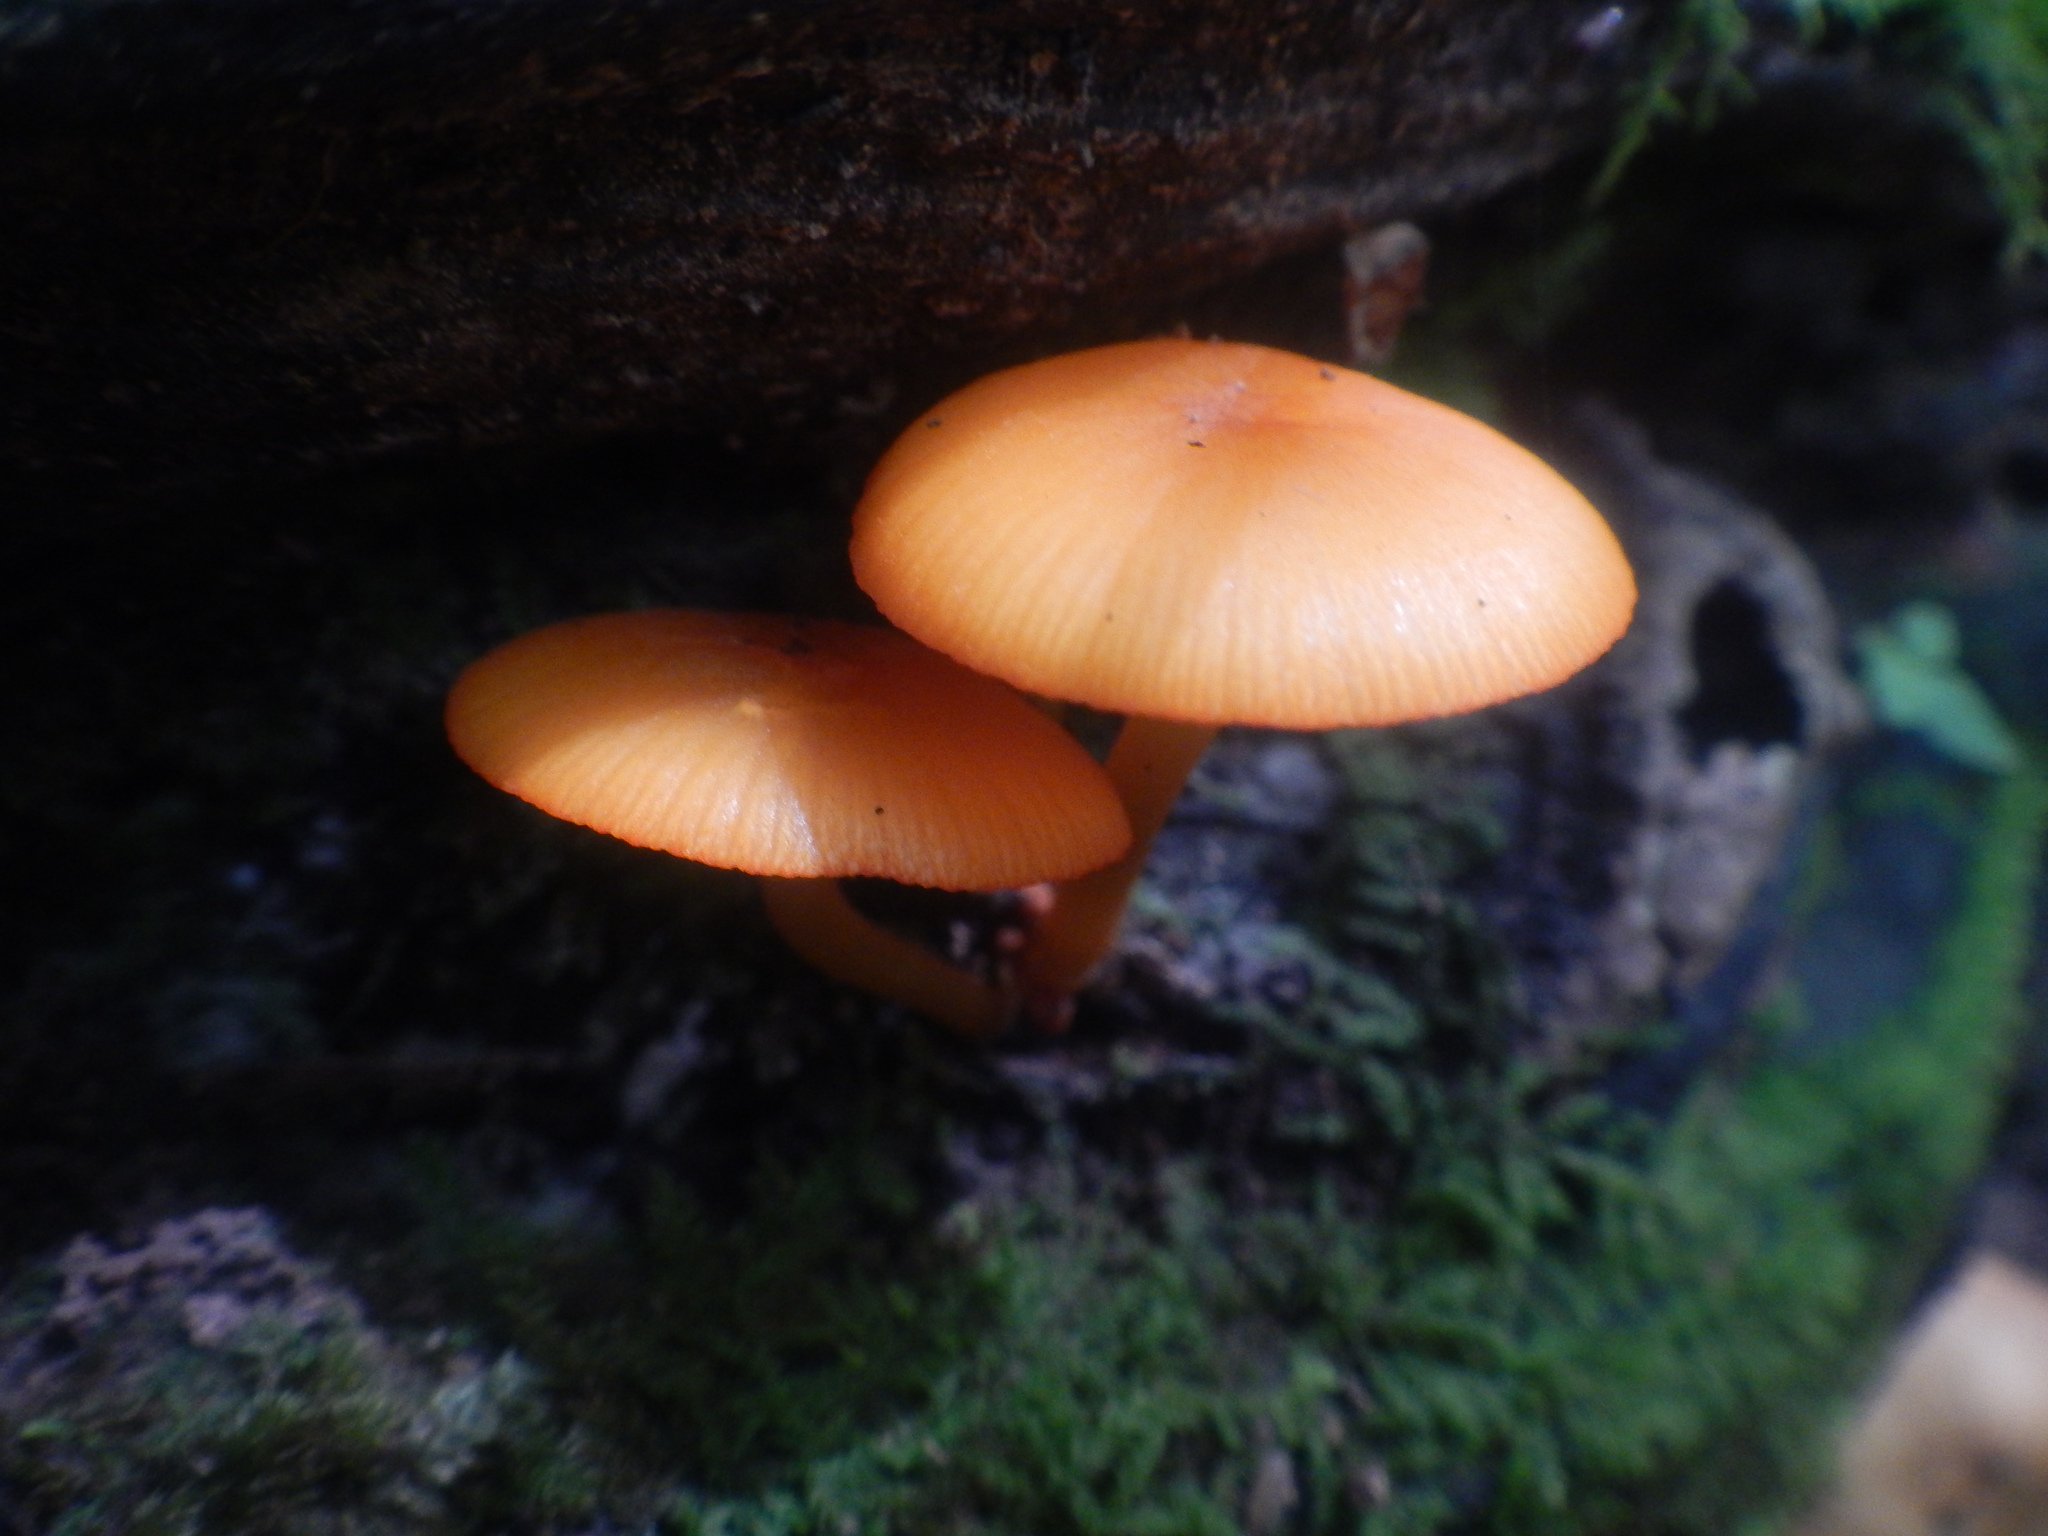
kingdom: Fungi
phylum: Basidiomycota
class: Agaricomycetes
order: Agaricales
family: Mycenaceae
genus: Mycena
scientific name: Mycena leaiana
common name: Orange mycena
